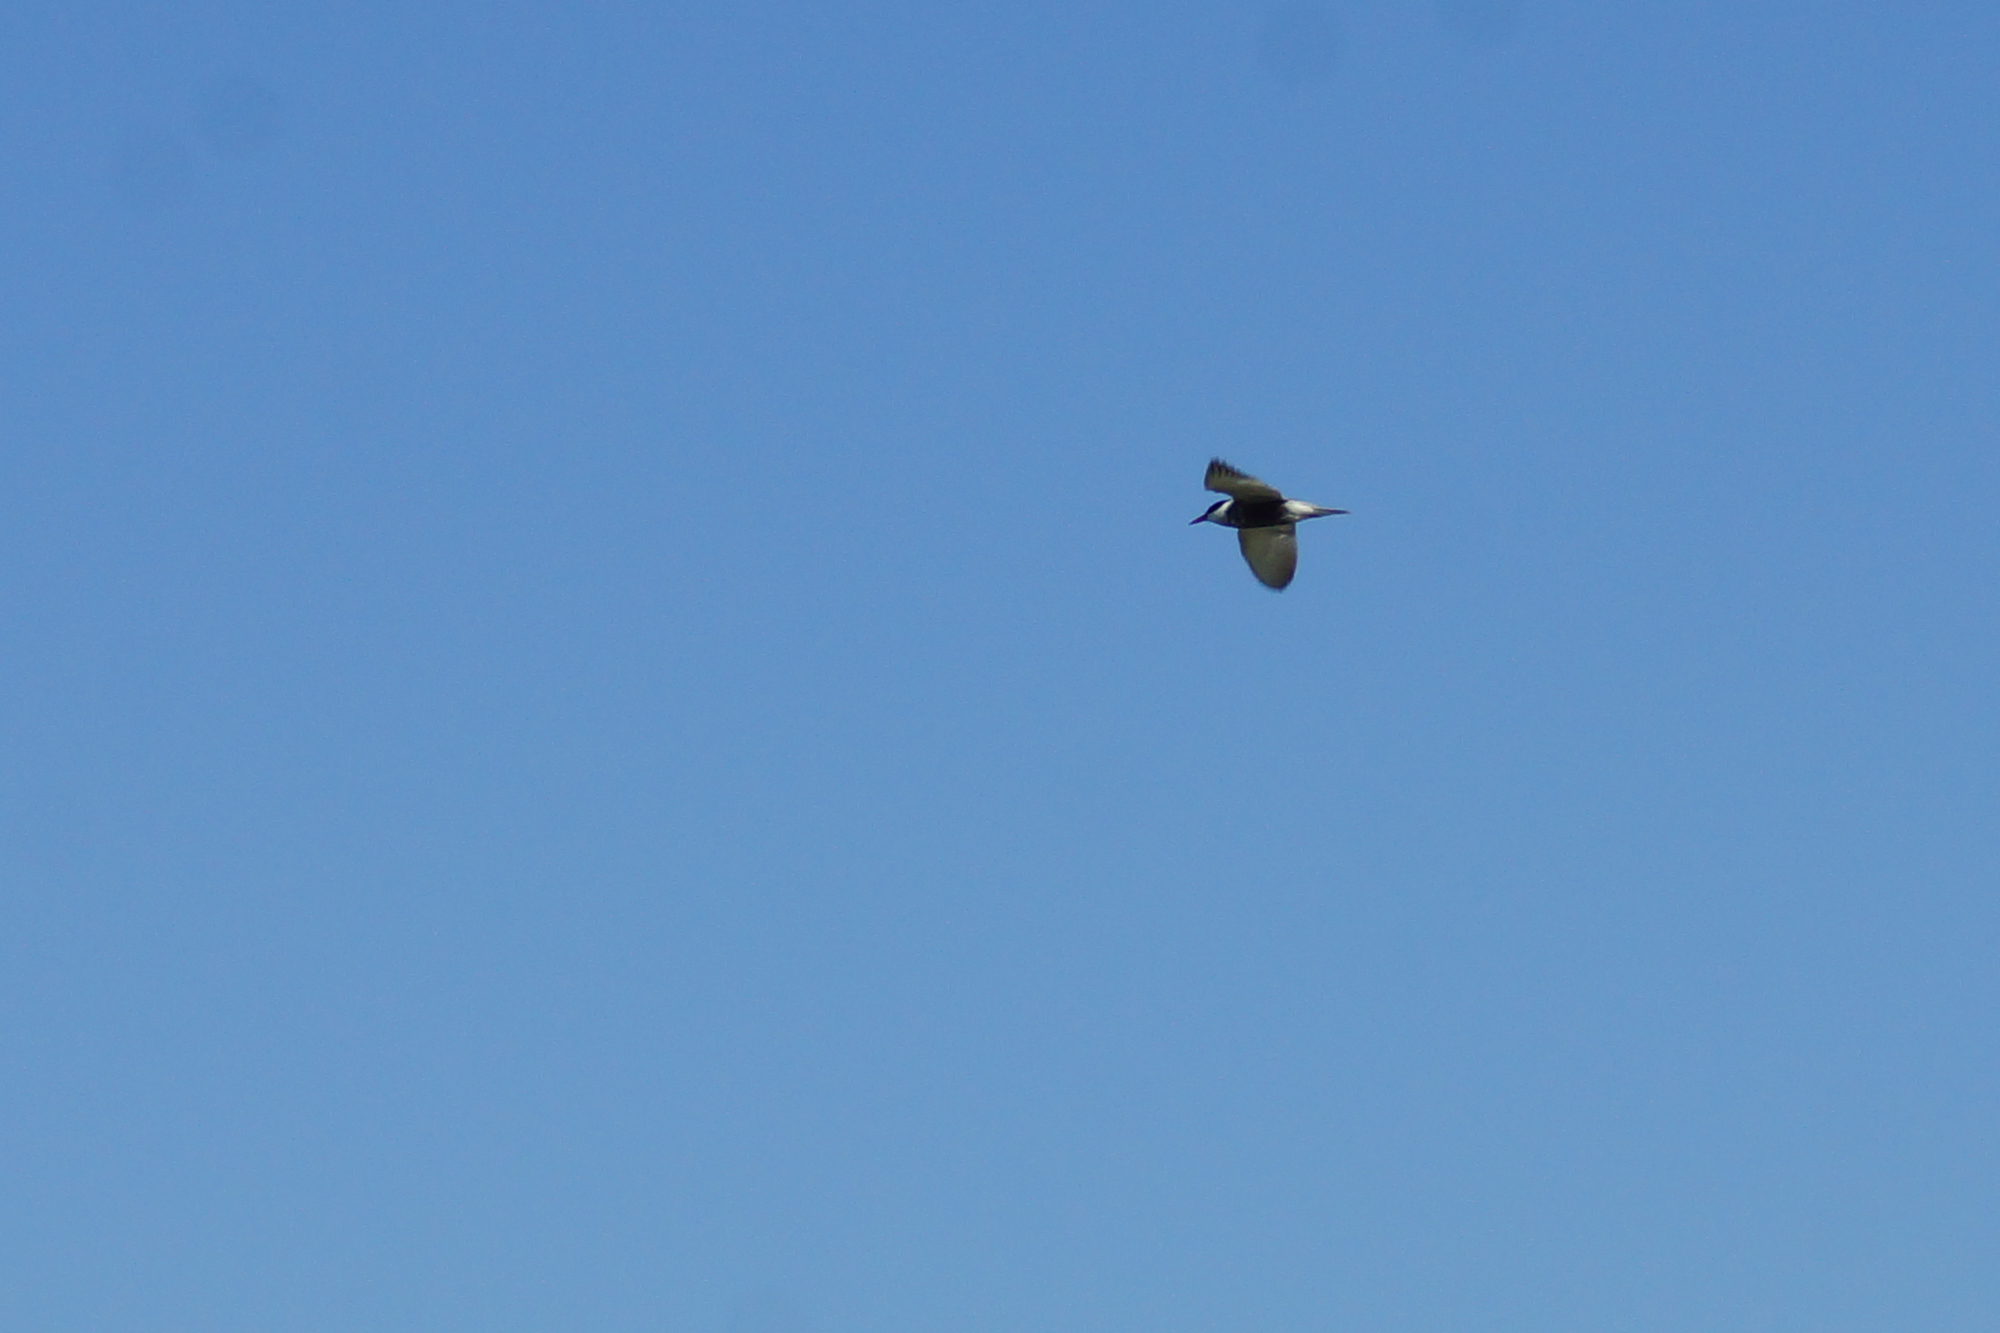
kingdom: Animalia
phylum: Chordata
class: Aves
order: Charadriiformes
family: Laridae
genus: Chlidonias
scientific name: Chlidonias hybrida
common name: Whiskered tern
